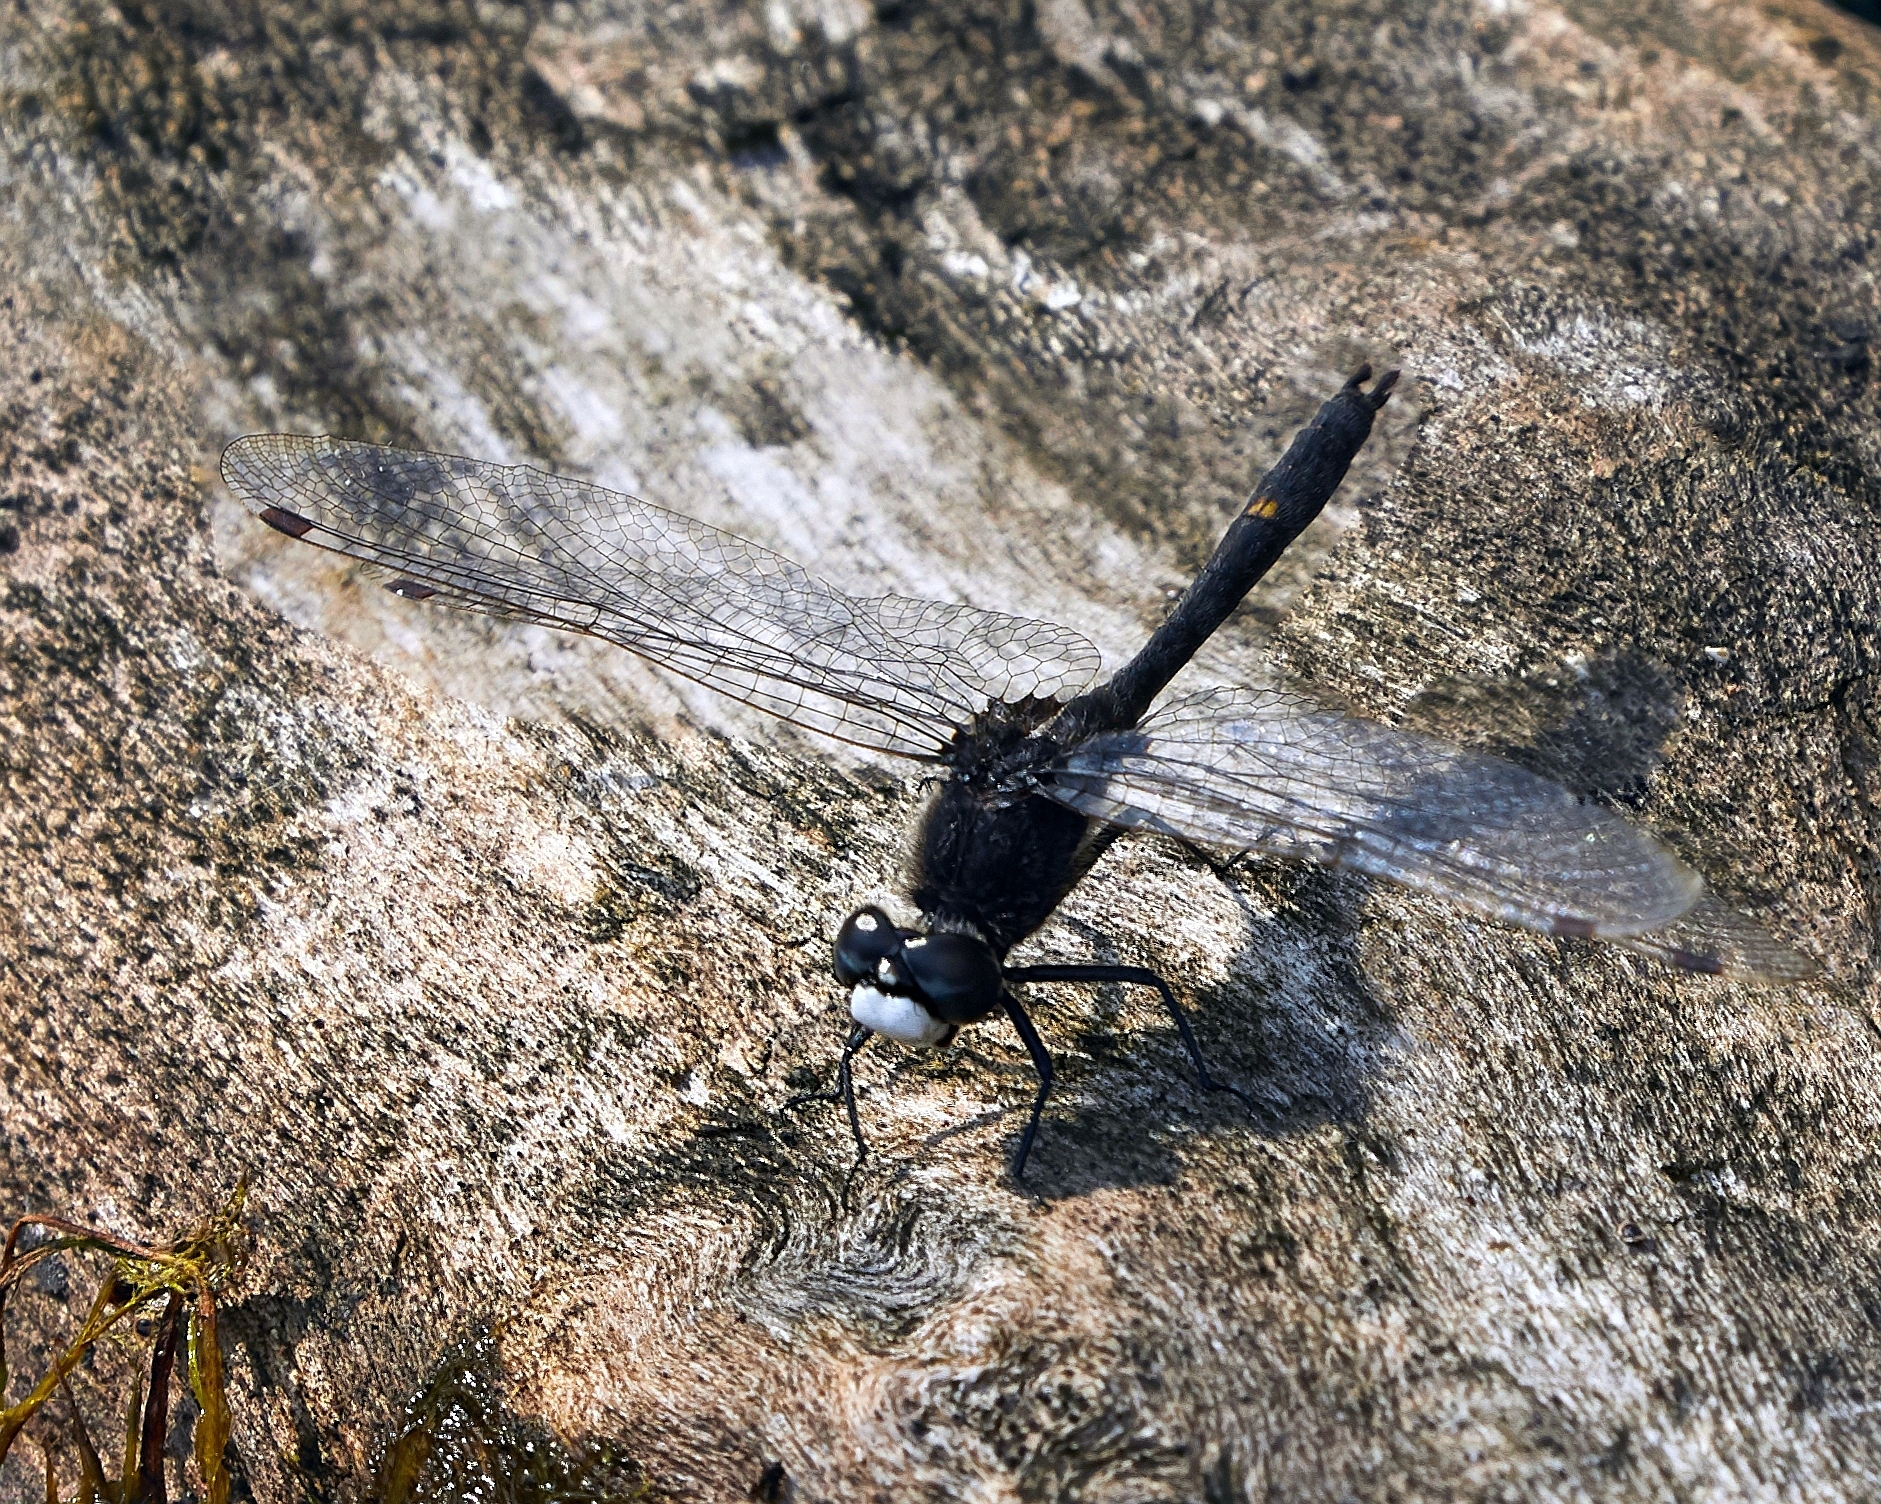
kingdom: Animalia
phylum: Arthropoda
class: Insecta
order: Odonata
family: Libellulidae
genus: Leucorrhinia
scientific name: Leucorrhinia intacta
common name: Dot-tailed whiteface
